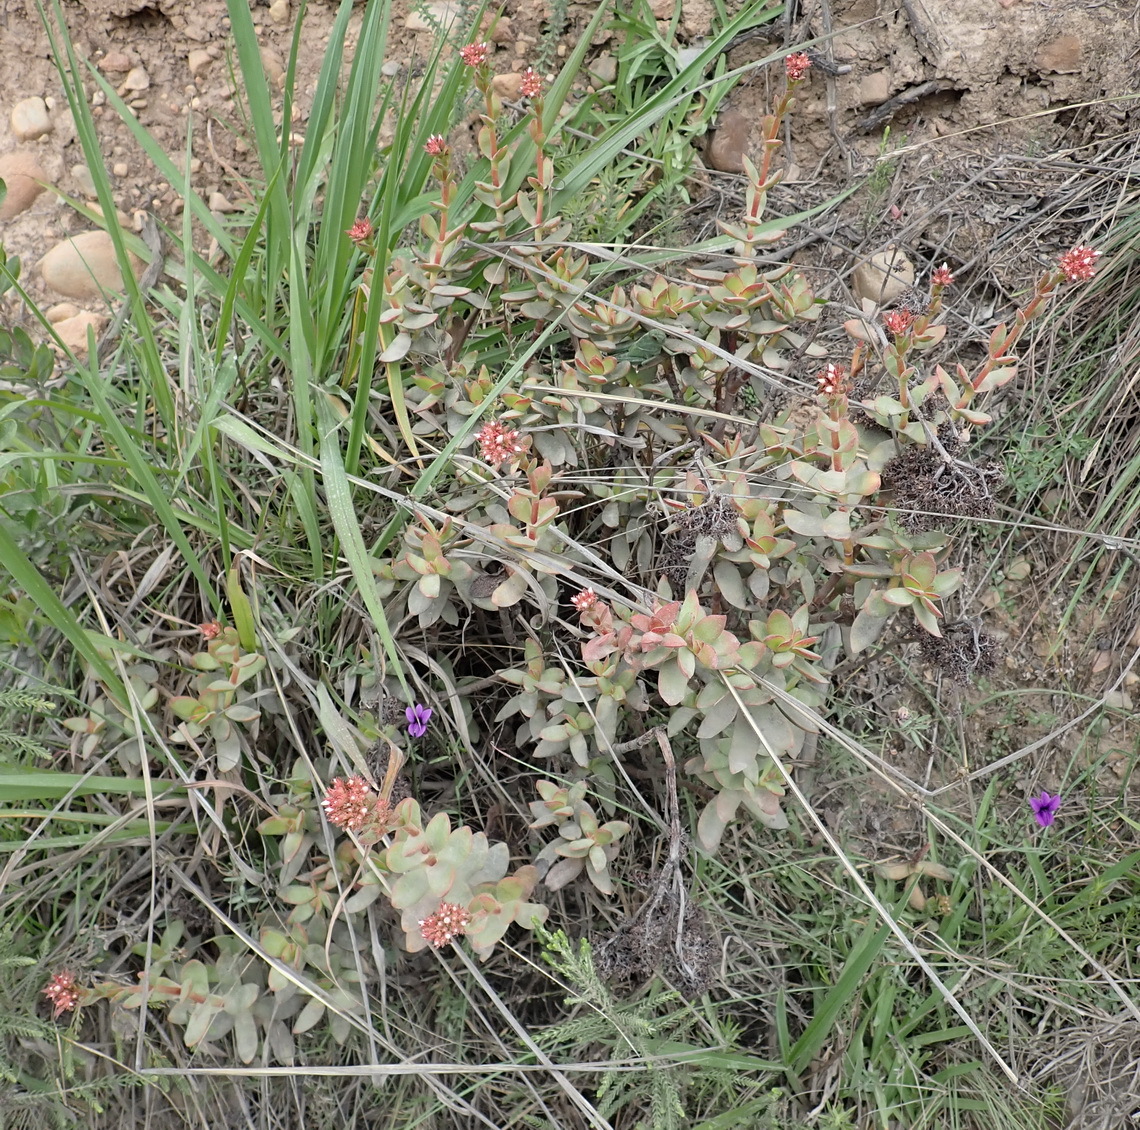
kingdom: Plantae
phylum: Tracheophyta
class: Magnoliopsida
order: Saxifragales
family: Crassulaceae
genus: Crassula
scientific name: Crassula rubricaulis
